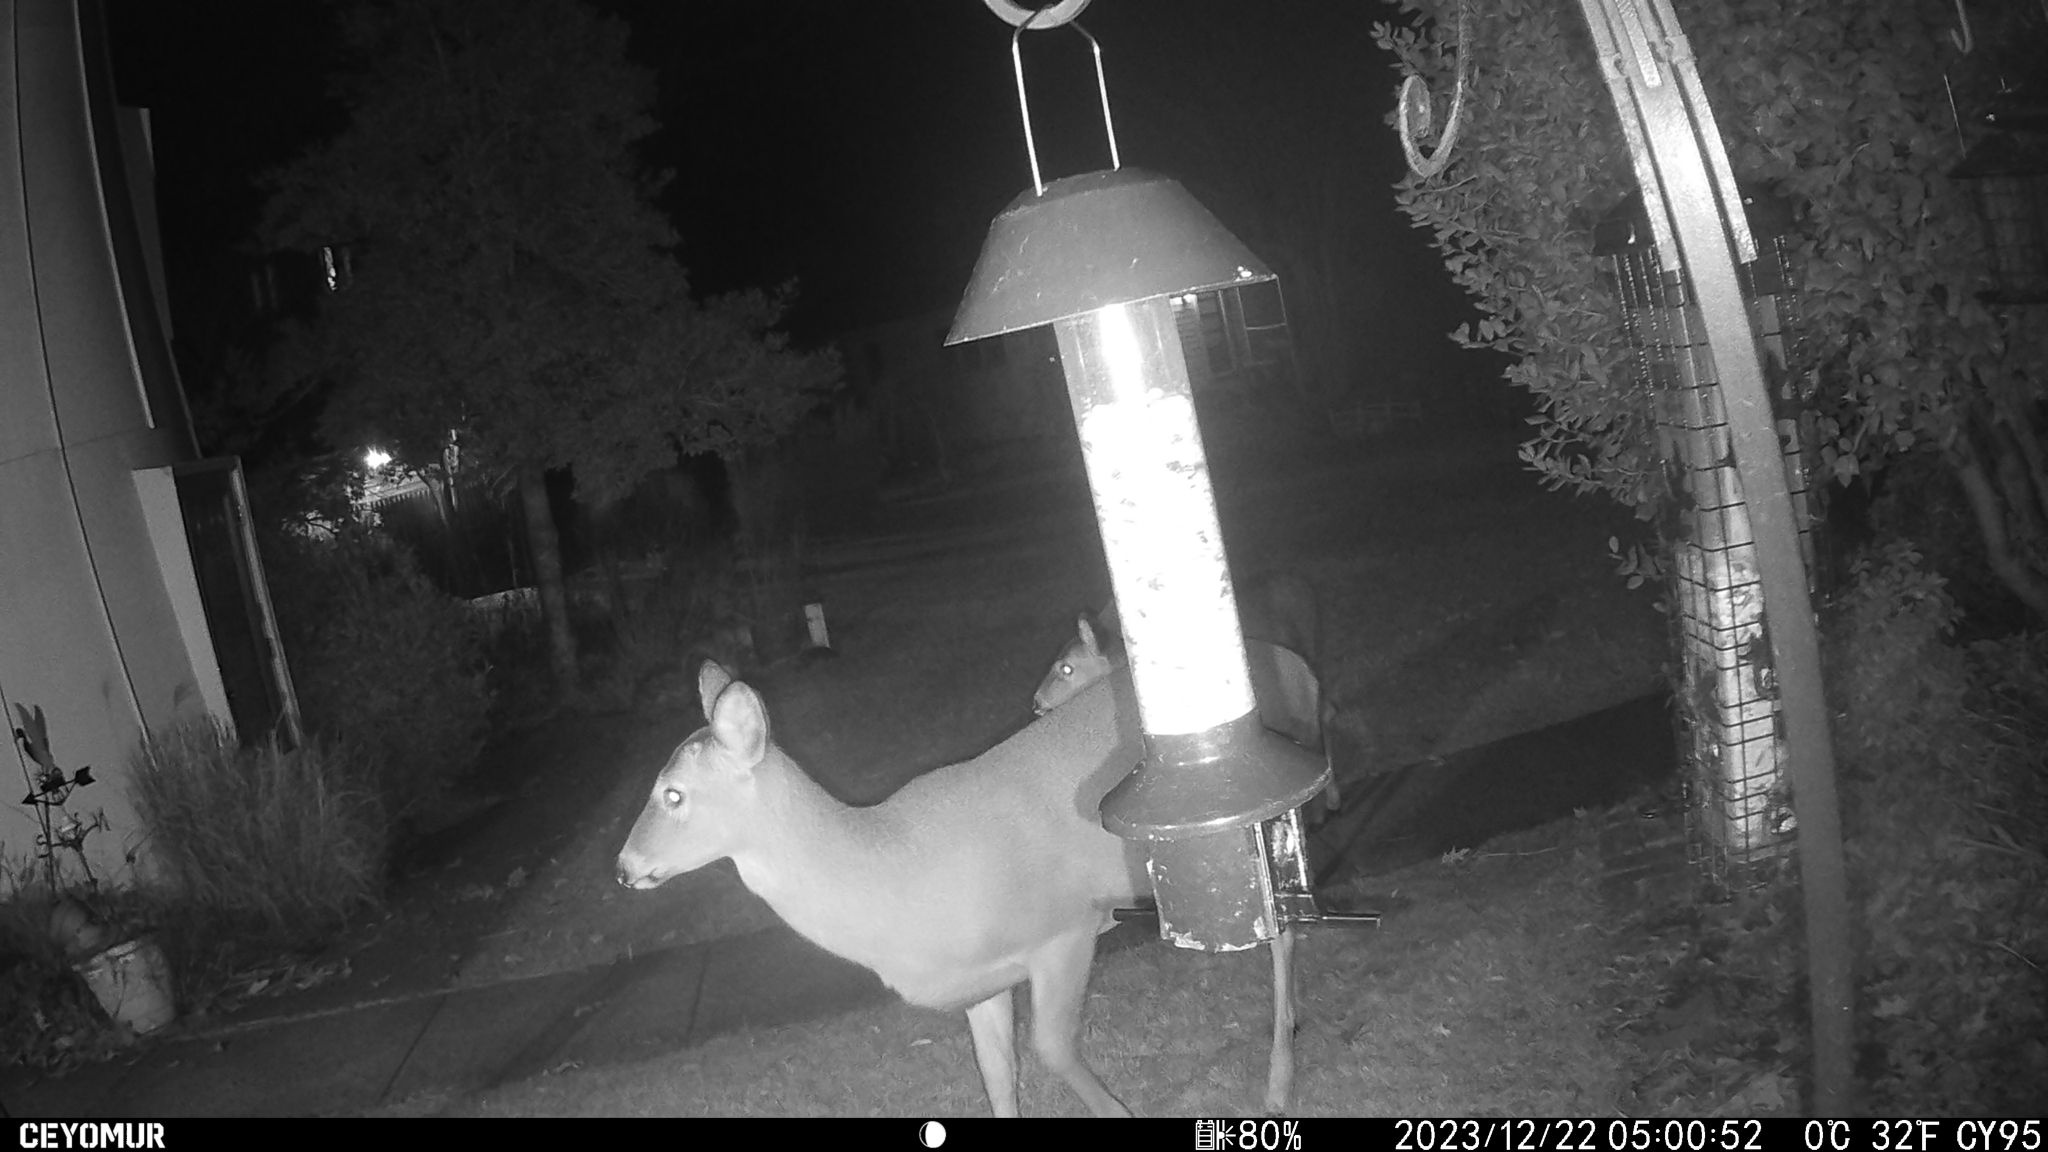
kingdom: Animalia
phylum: Chordata
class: Mammalia
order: Artiodactyla
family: Cervidae
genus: Odocoileus
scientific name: Odocoileus virginianus
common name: White-tailed deer
